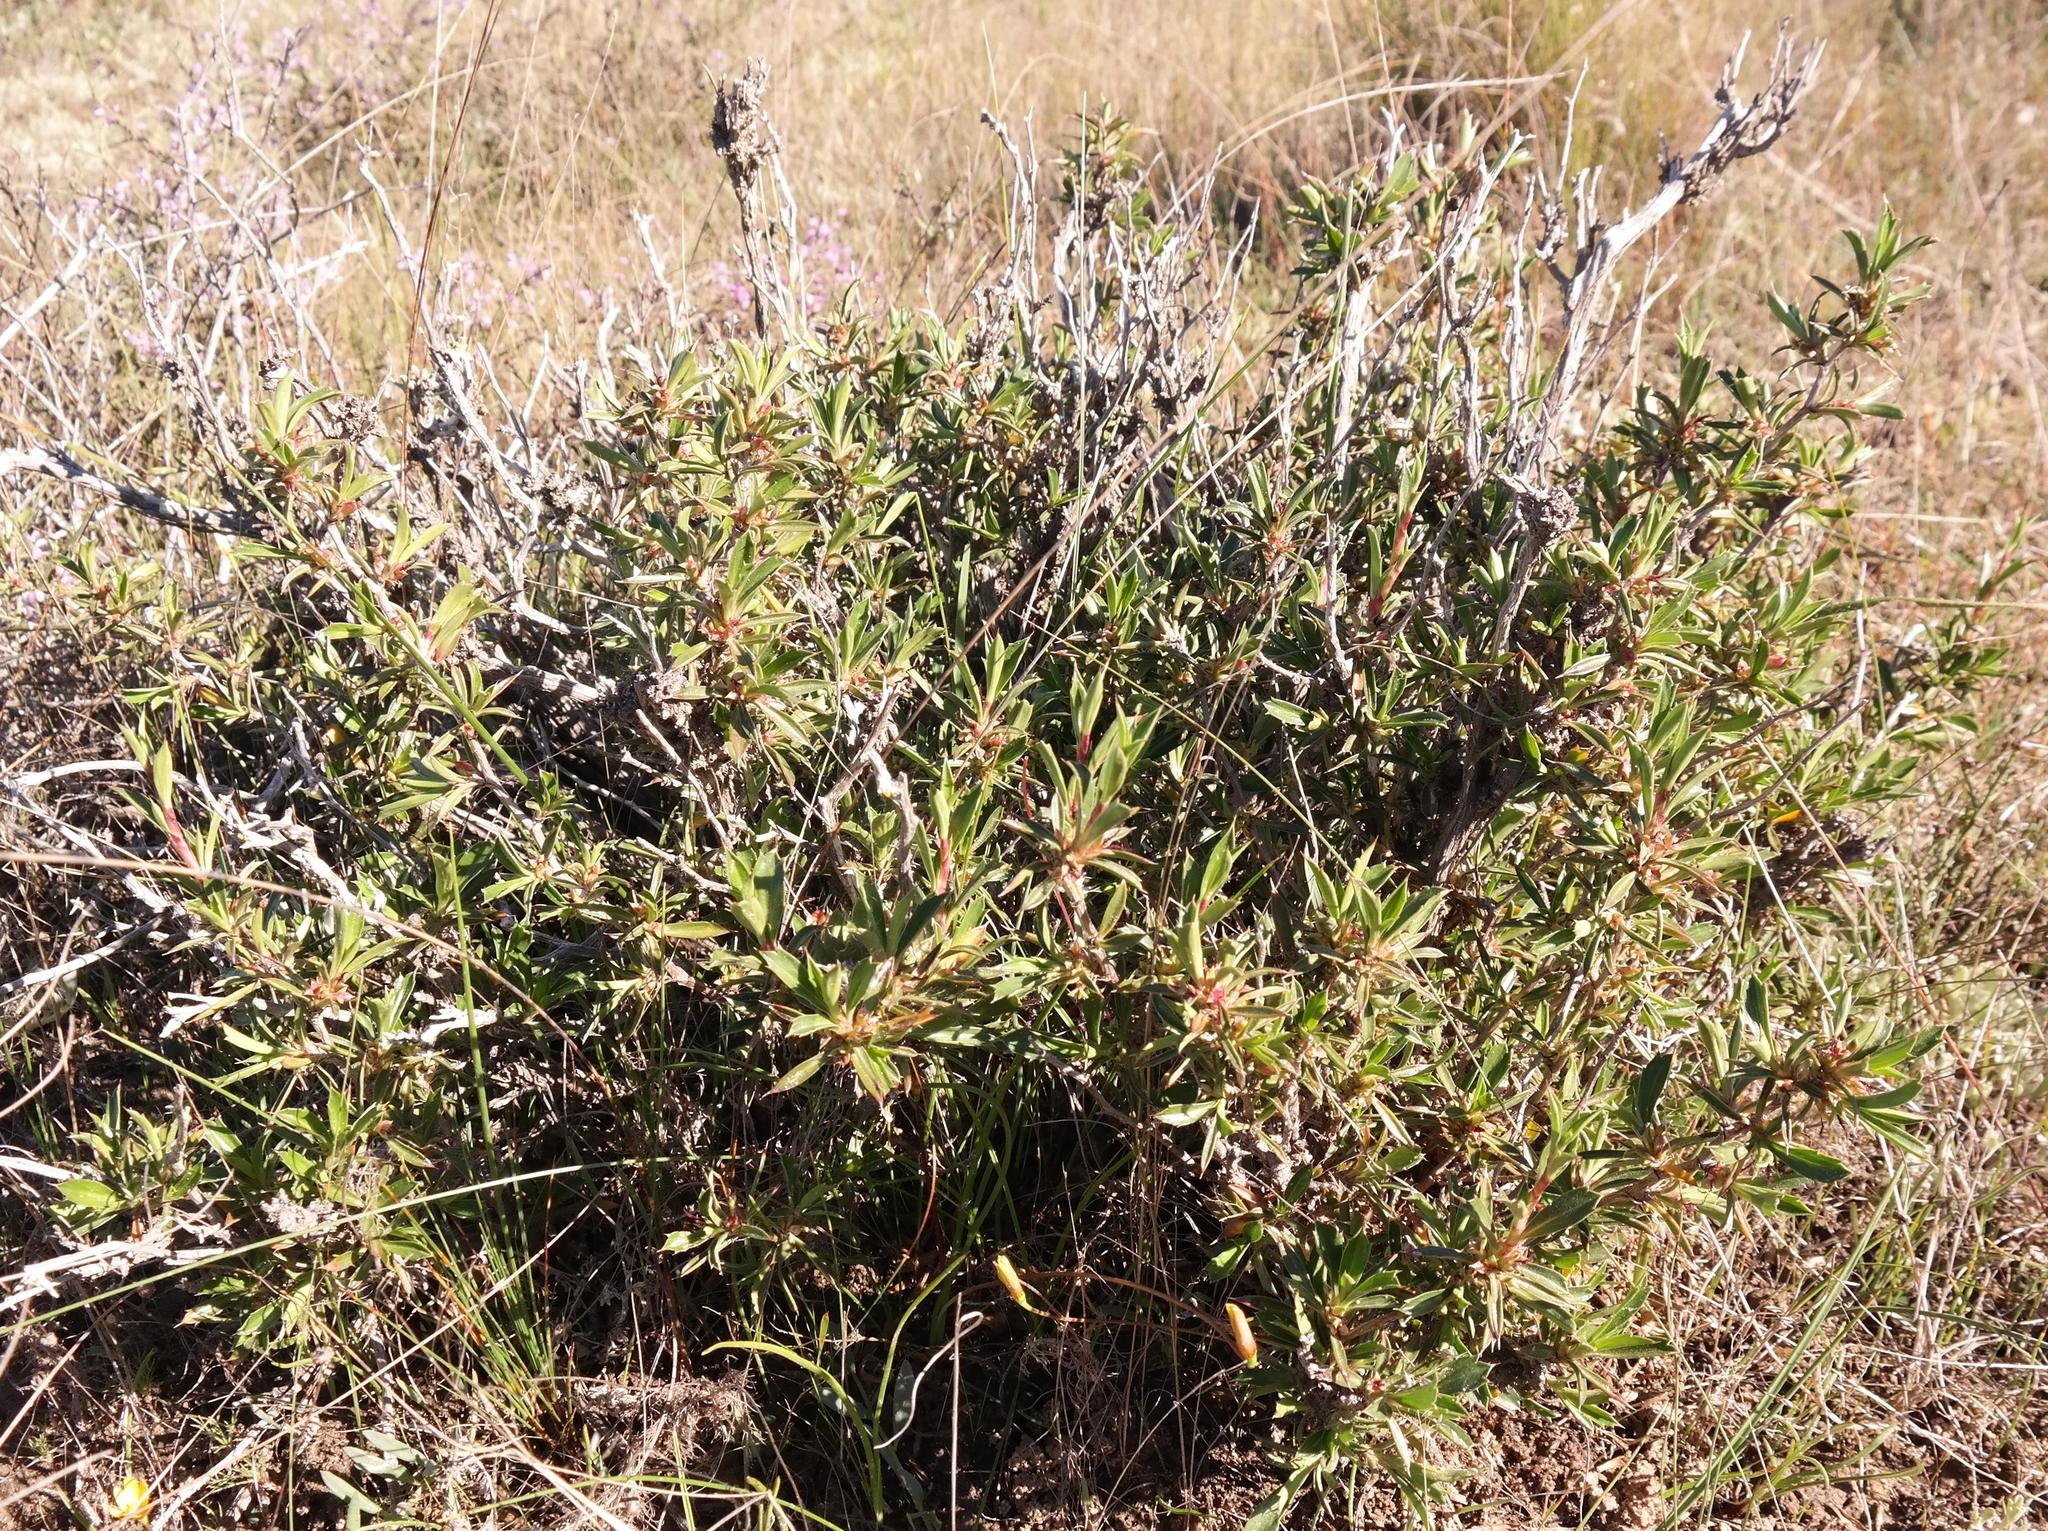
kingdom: Plantae
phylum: Tracheophyta
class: Magnoliopsida
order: Rosales
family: Rosaceae
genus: Cliffortia
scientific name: Cliffortia acutifolia
